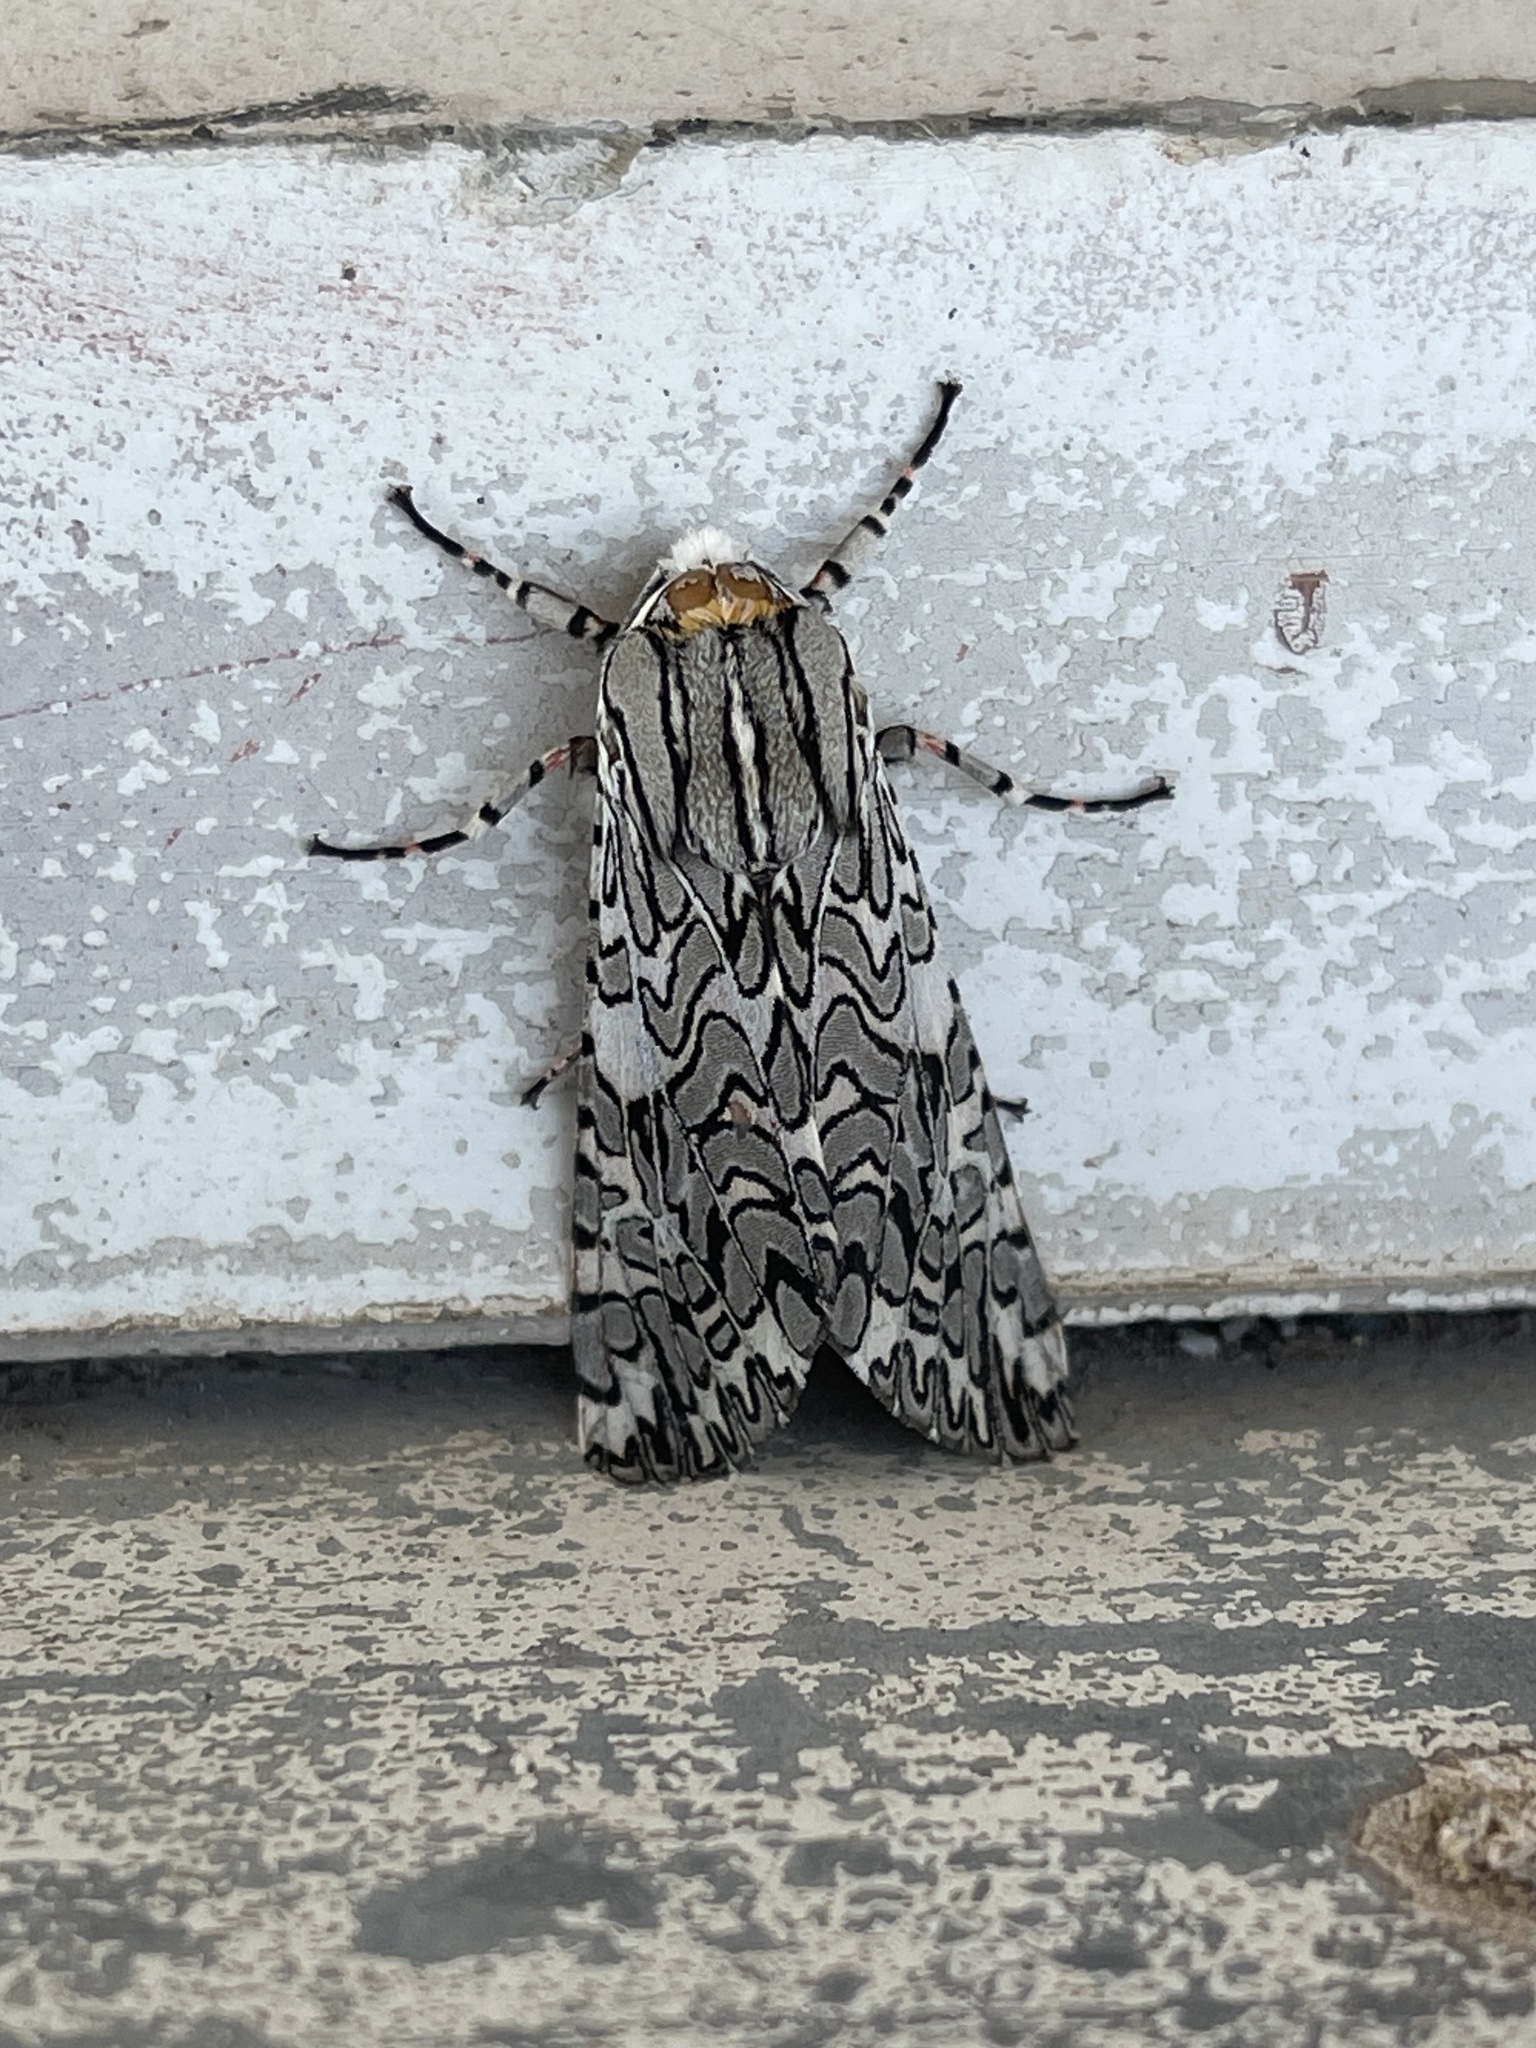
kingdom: Animalia
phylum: Arthropoda
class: Insecta
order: Lepidoptera
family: Erebidae
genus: Arachnis
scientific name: Arachnis picta
